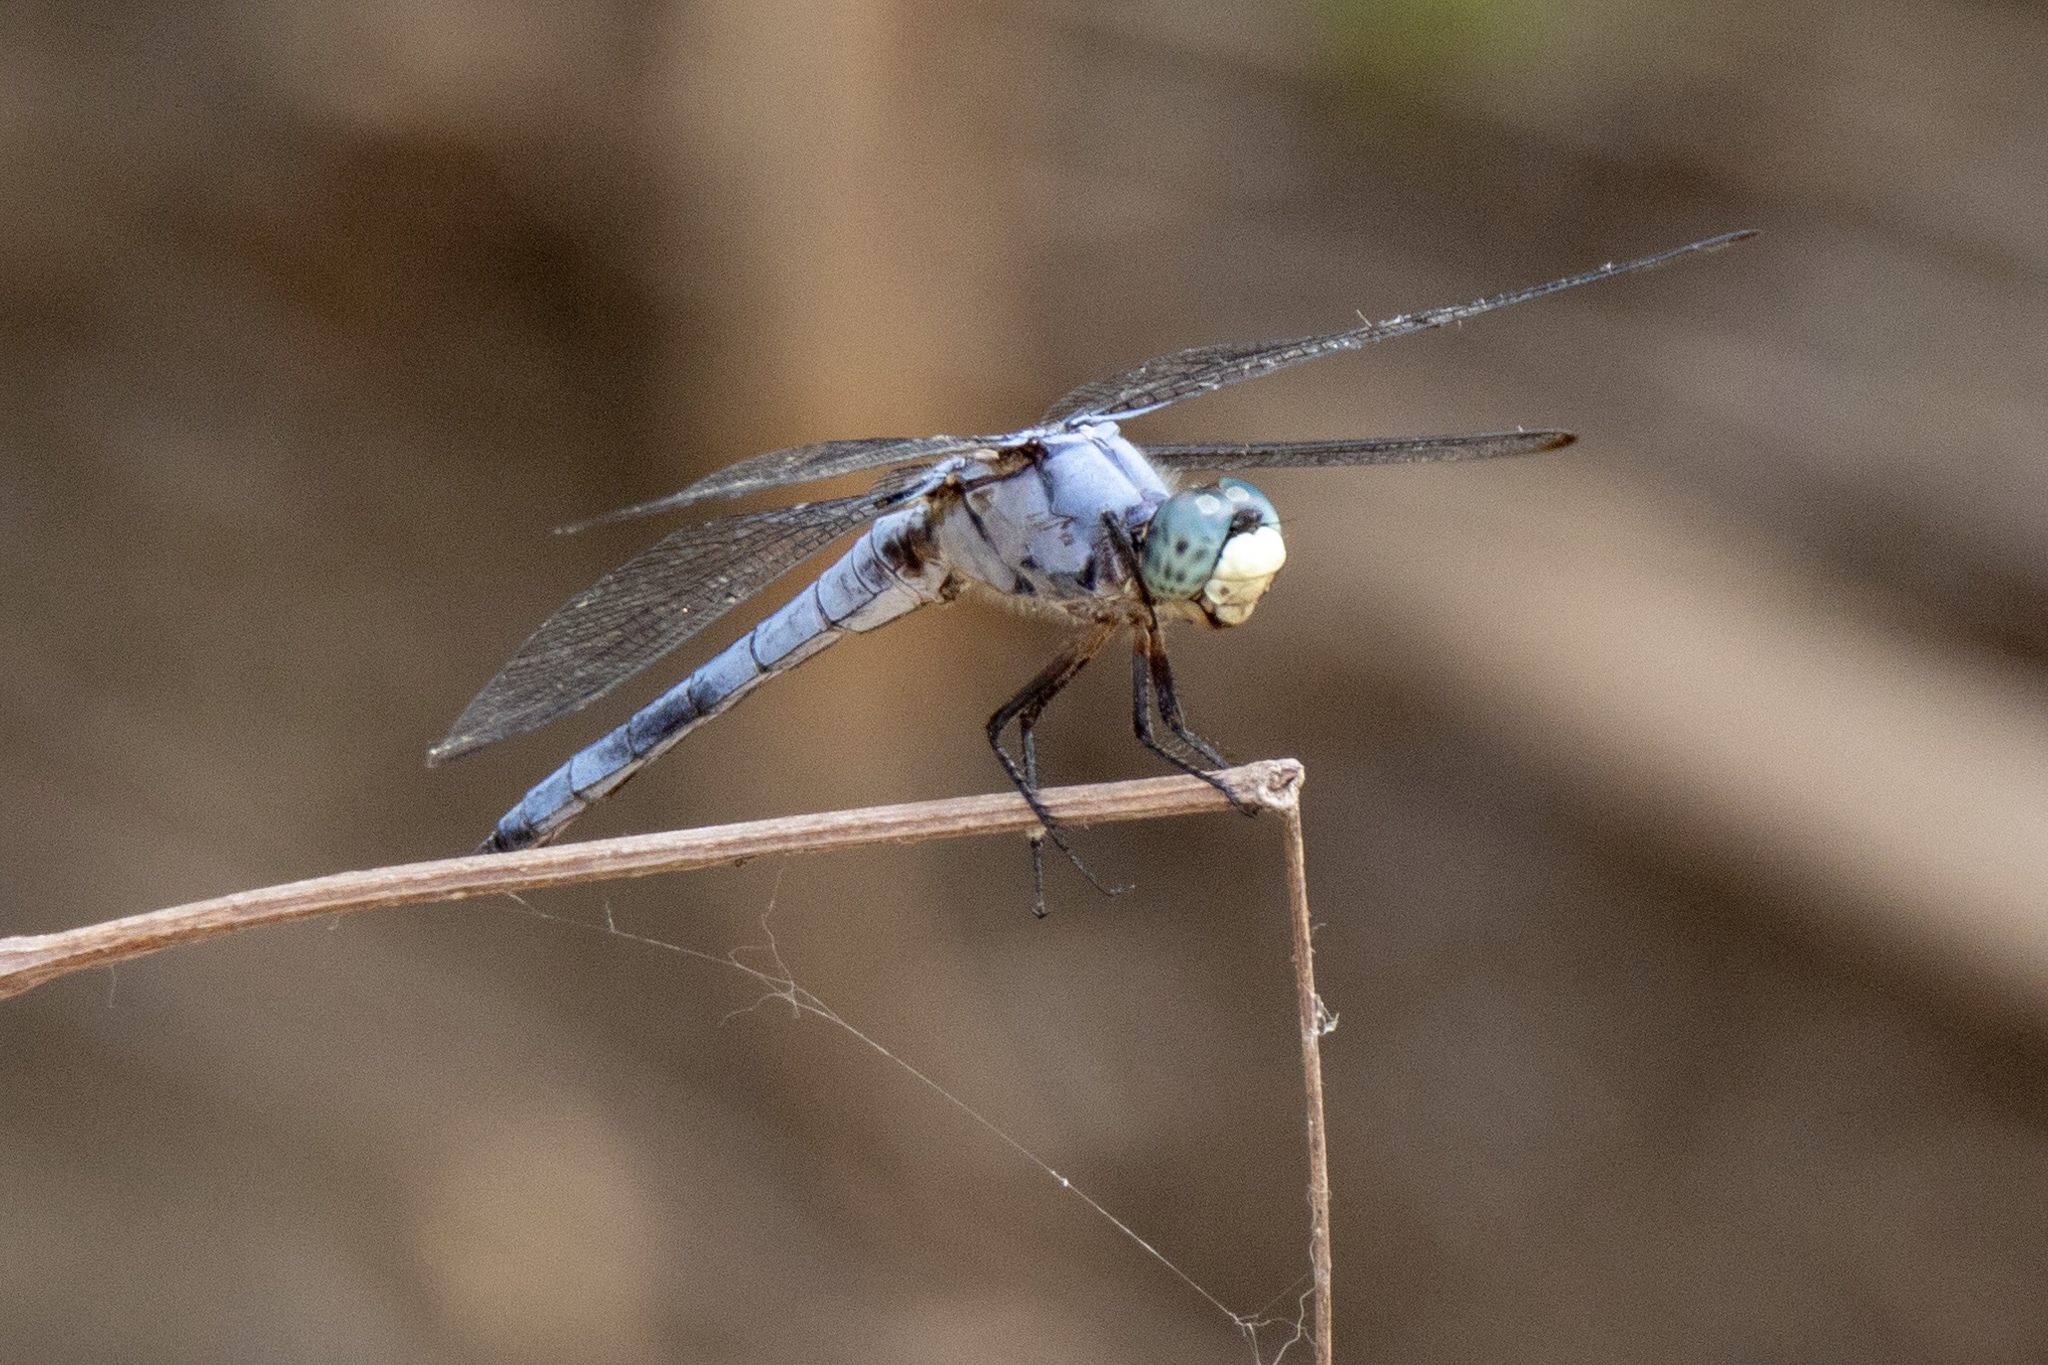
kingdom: Animalia
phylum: Arthropoda
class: Insecta
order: Odonata
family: Libellulidae
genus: Libellula
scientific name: Libellula vibrans
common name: Great blue skimmer
